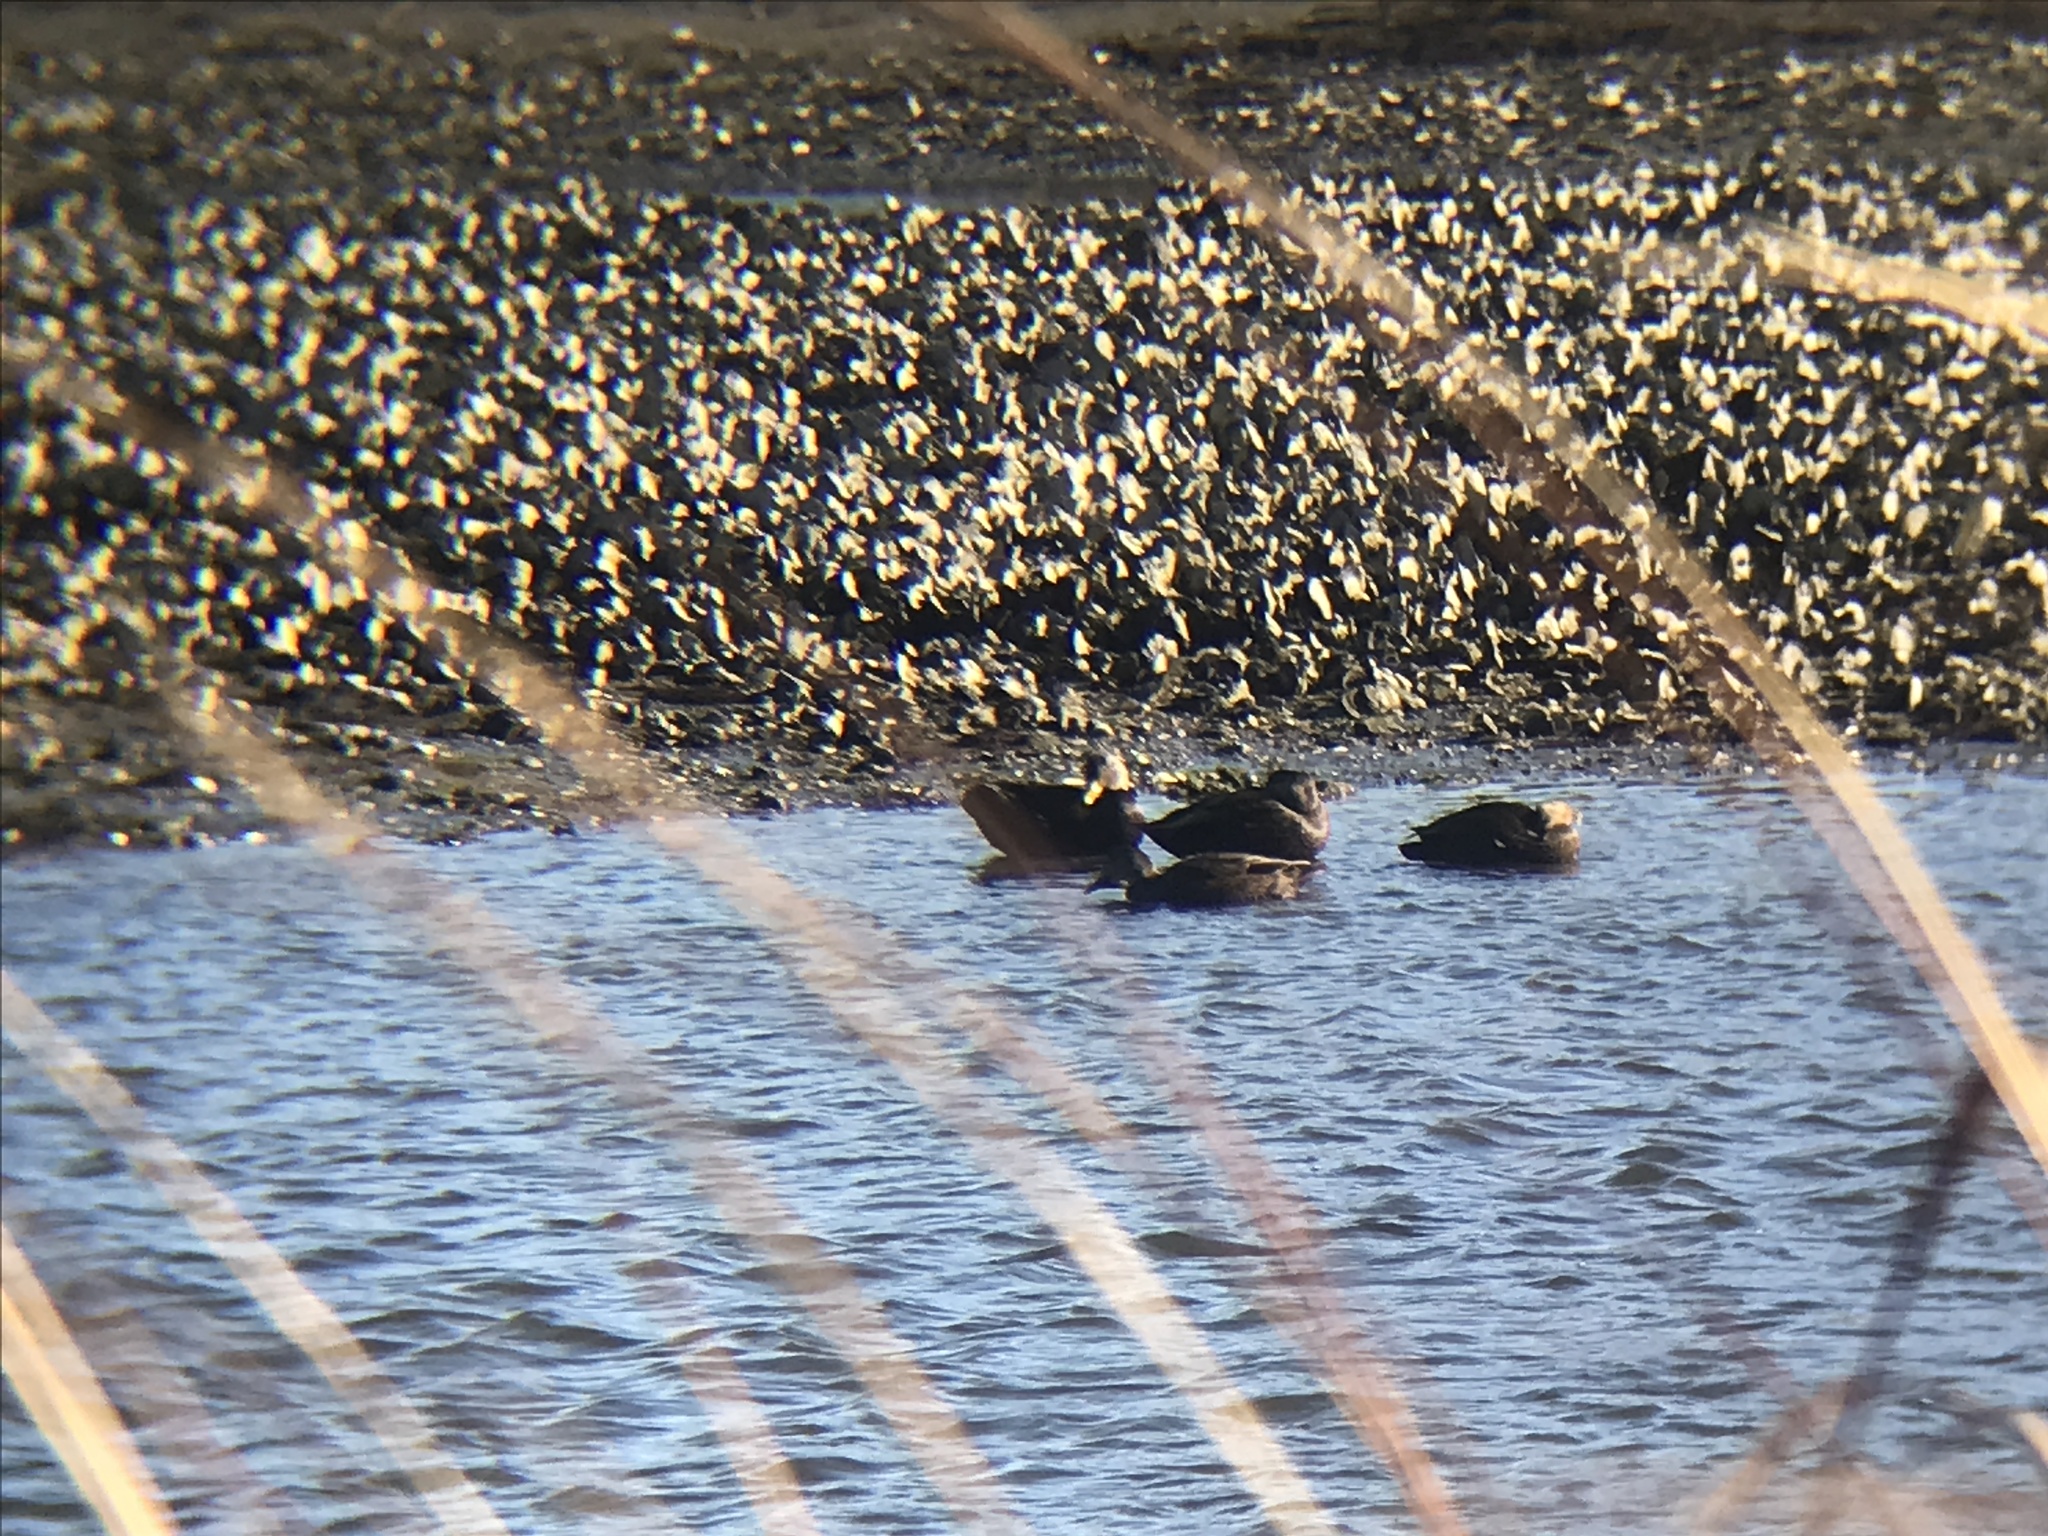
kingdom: Animalia
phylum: Chordata
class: Aves
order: Anseriformes
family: Anatidae
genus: Anas
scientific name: Anas rubripes
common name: American black duck
